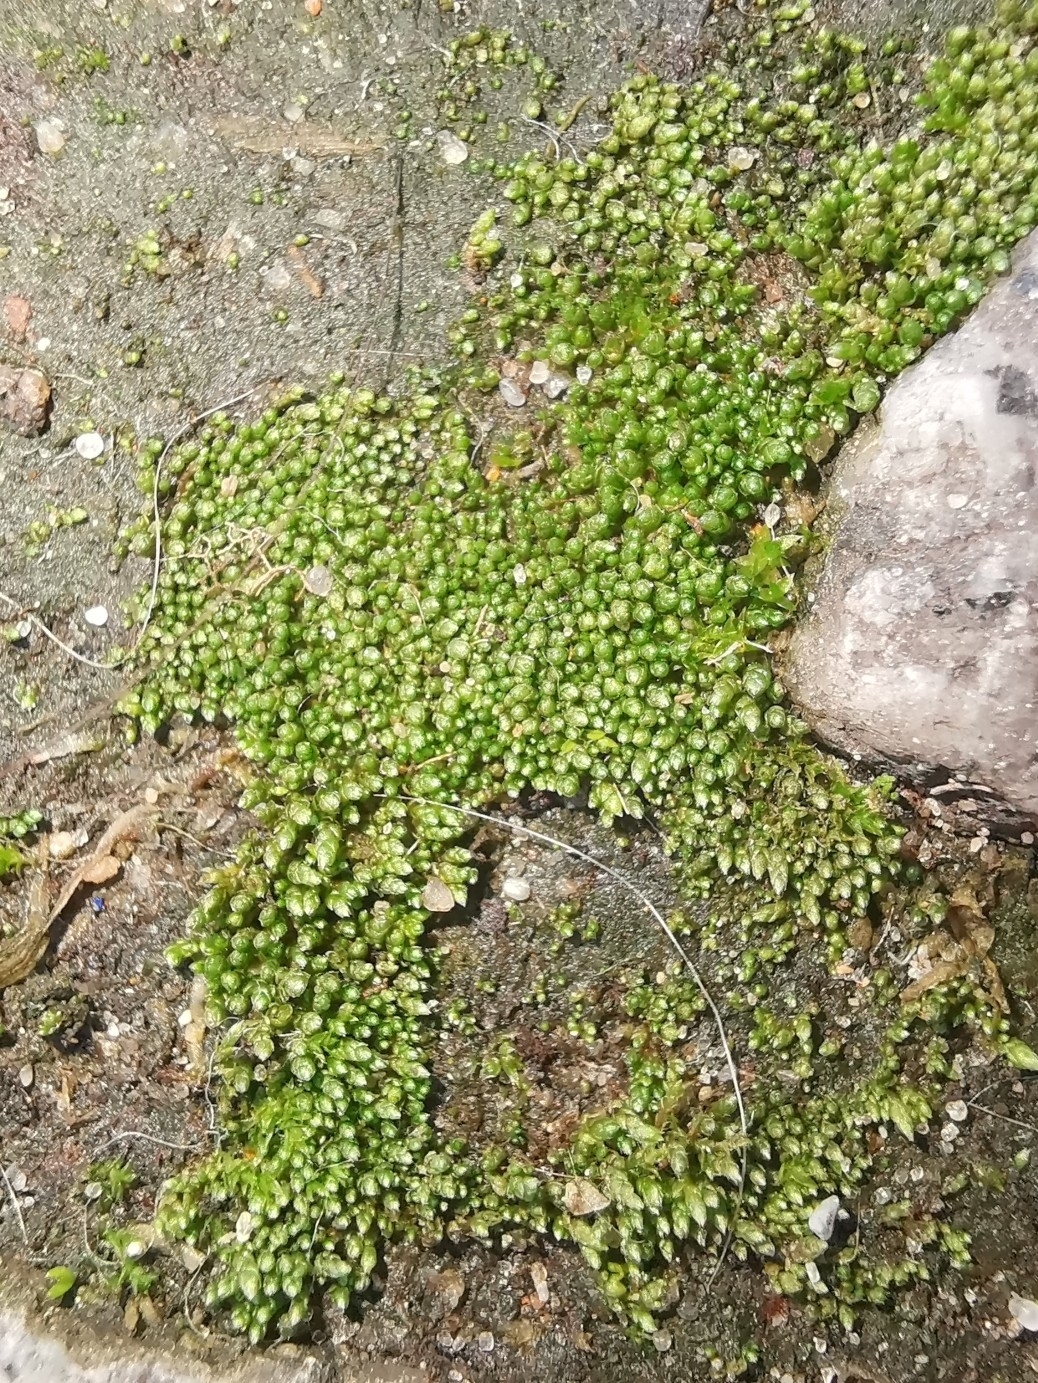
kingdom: Plantae
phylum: Bryophyta
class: Bryopsida
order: Bryales
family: Bryaceae
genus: Bryum
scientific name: Bryum argenteum
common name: Silver-moss
